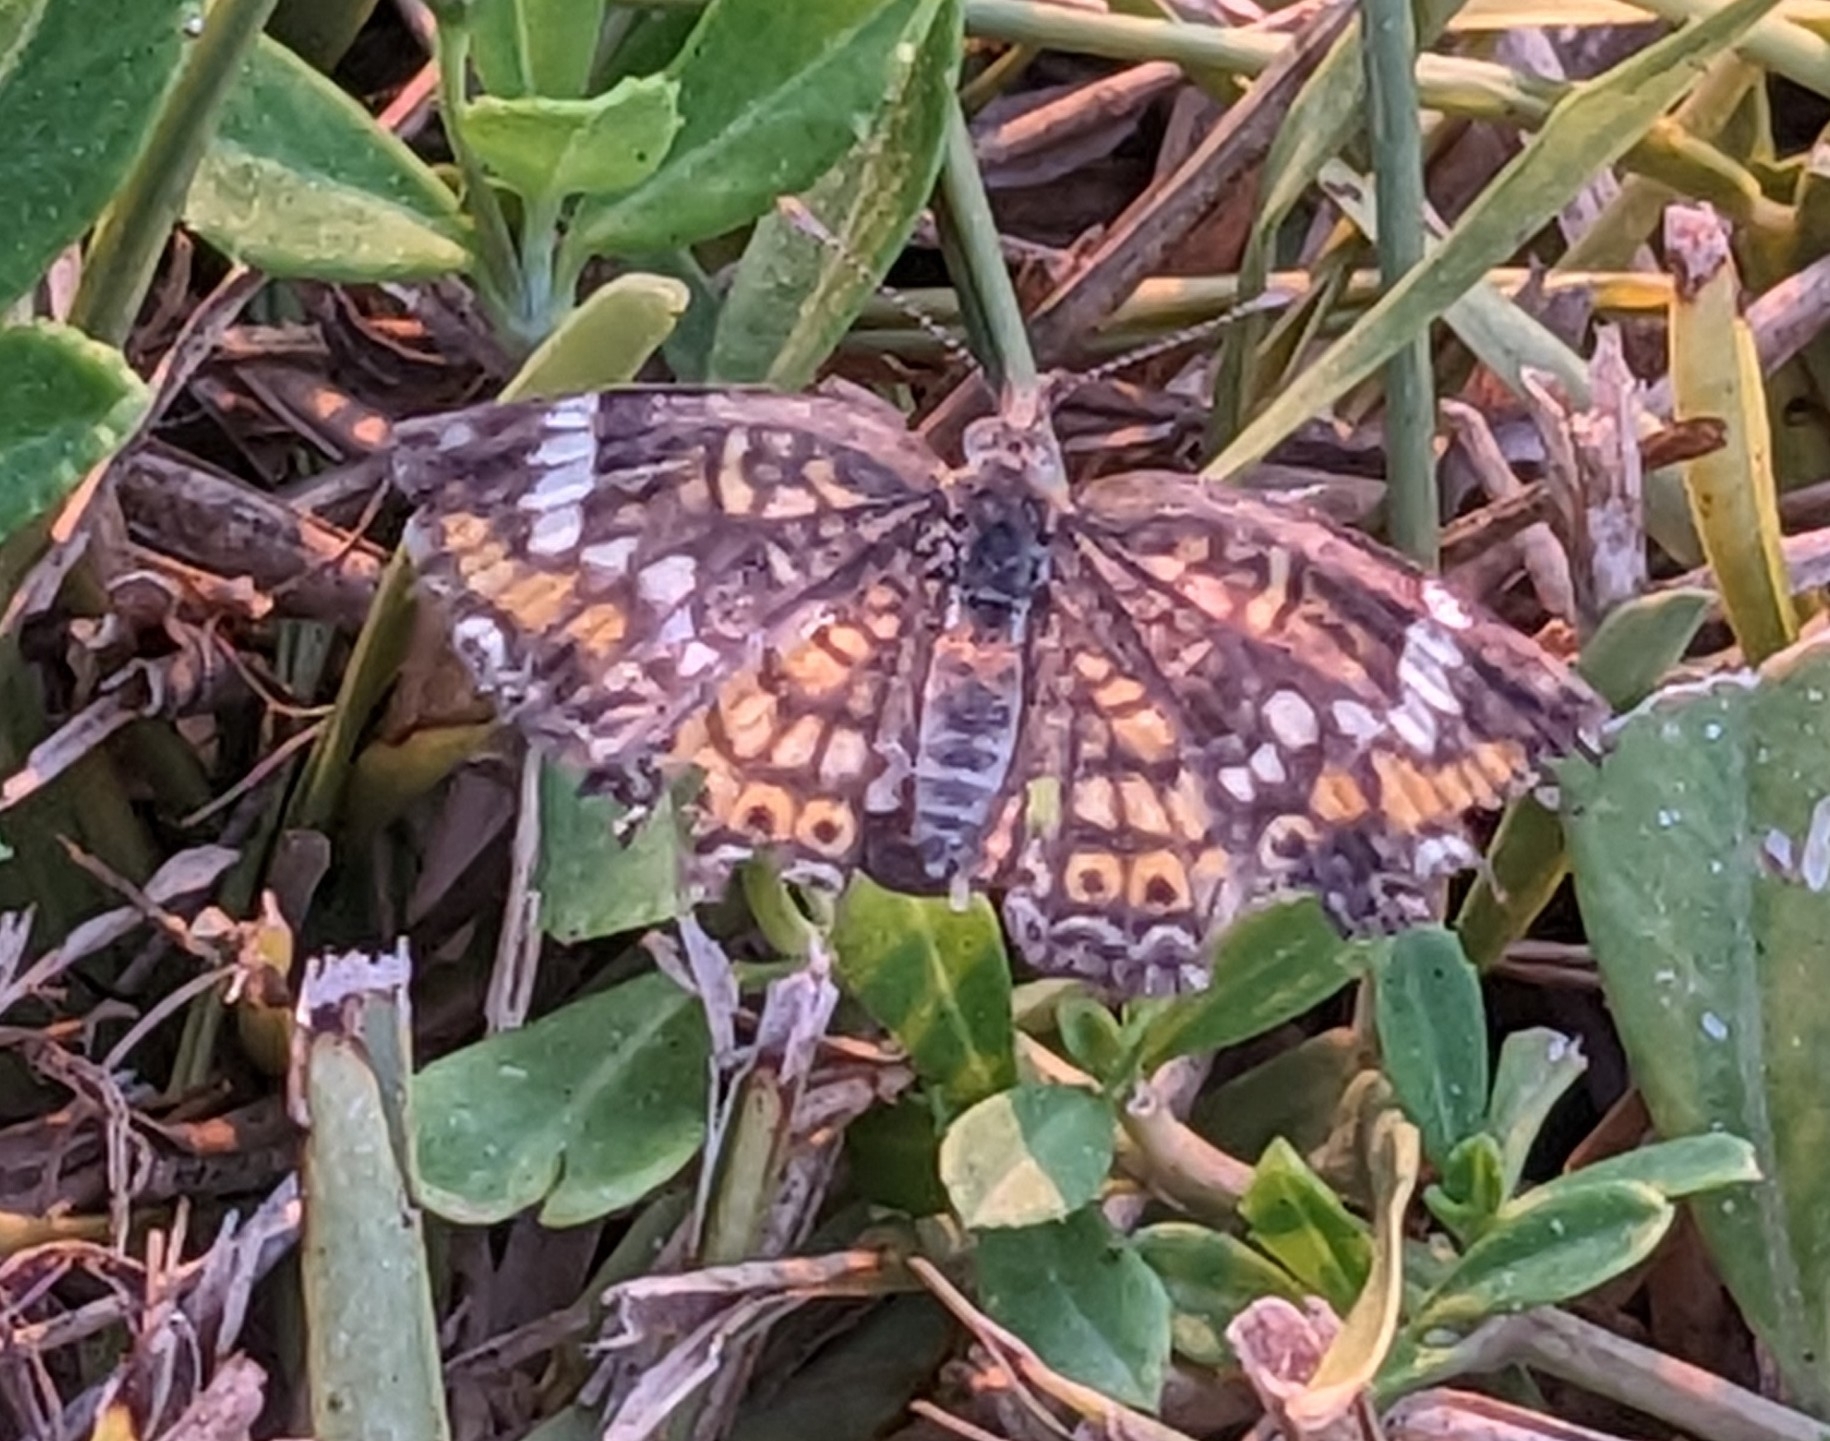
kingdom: Animalia
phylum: Arthropoda
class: Insecta
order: Lepidoptera
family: Nymphalidae
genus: Phyciodes
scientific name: Phyciodes phaon
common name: Phaon crescent
